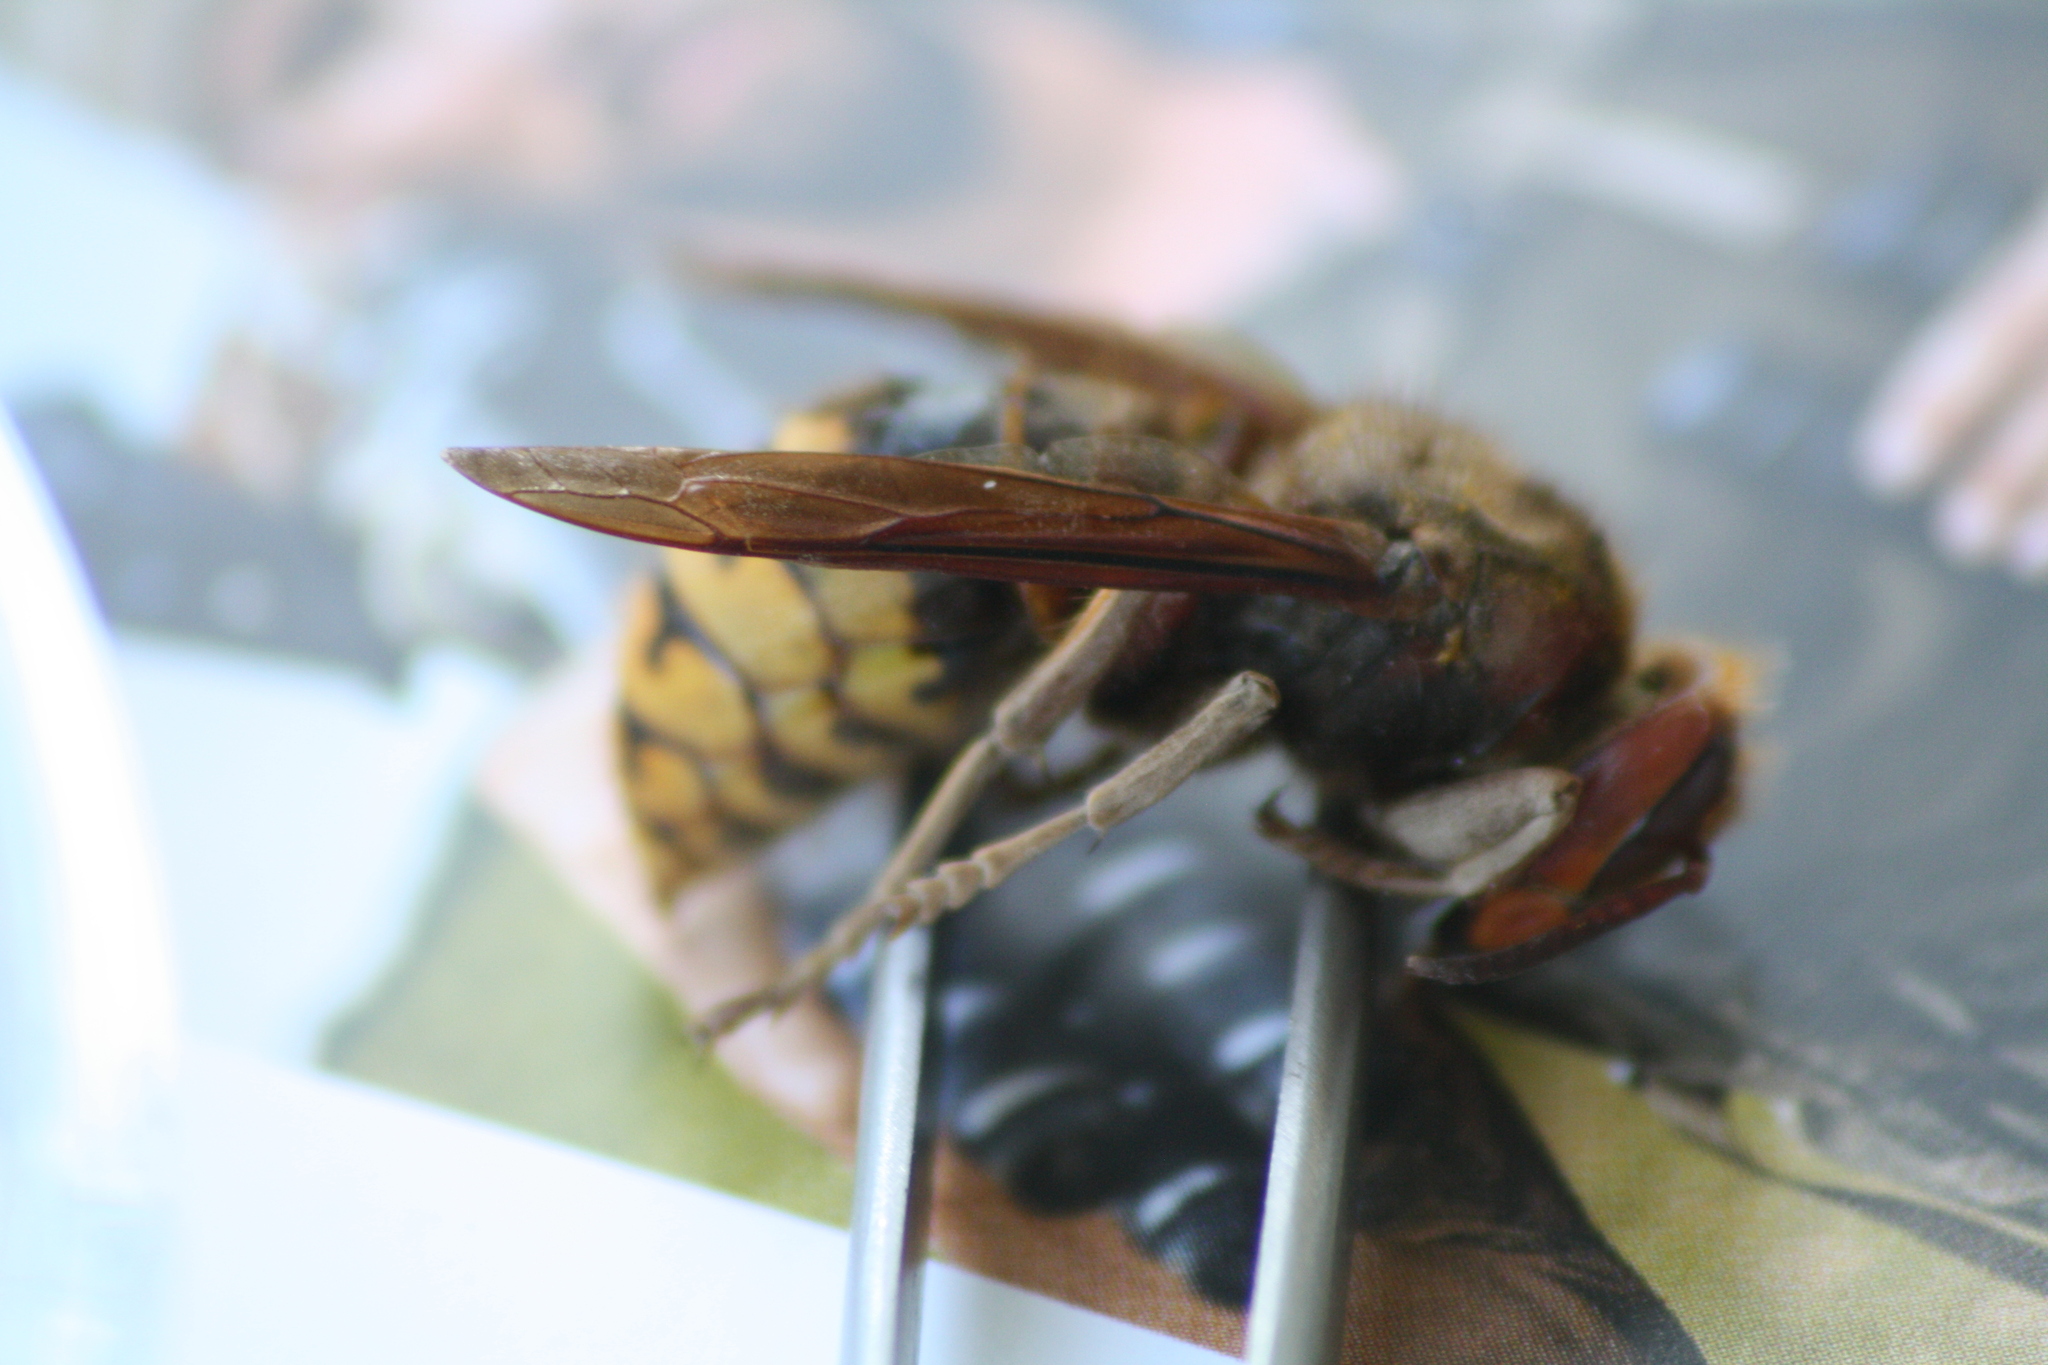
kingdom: Animalia
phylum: Arthropoda
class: Insecta
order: Hymenoptera
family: Vespidae
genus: Vespa
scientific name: Vespa crabro
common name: Hornet
